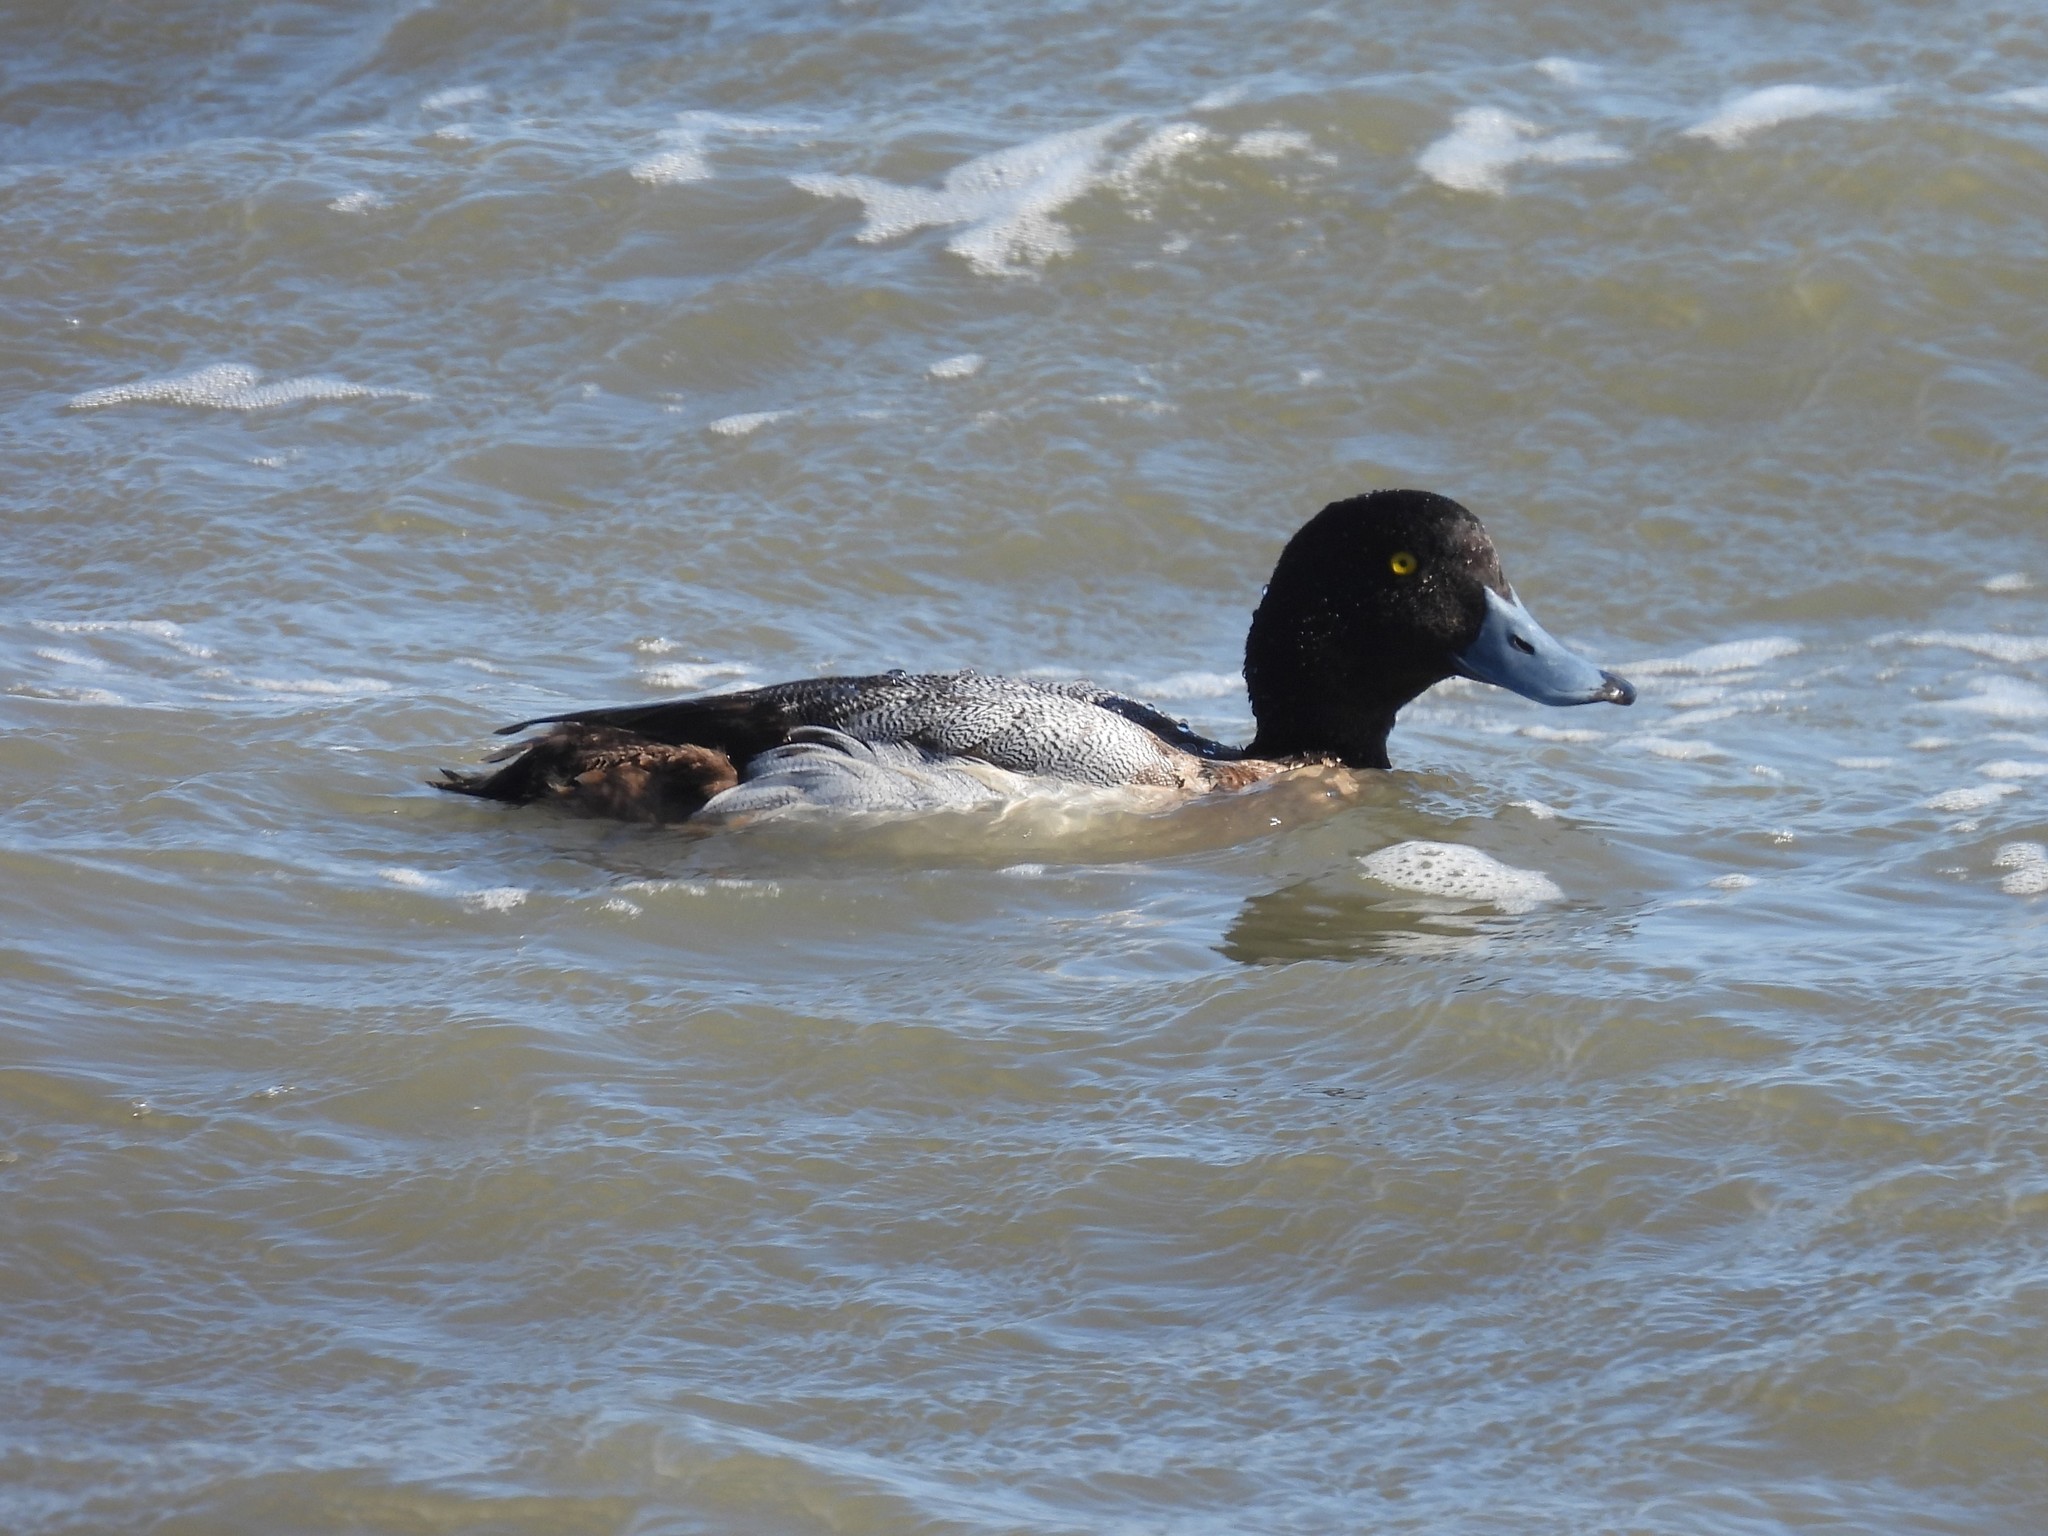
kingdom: Animalia
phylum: Chordata
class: Aves
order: Anseriformes
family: Anatidae
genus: Aythya
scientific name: Aythya marila
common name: Greater scaup
